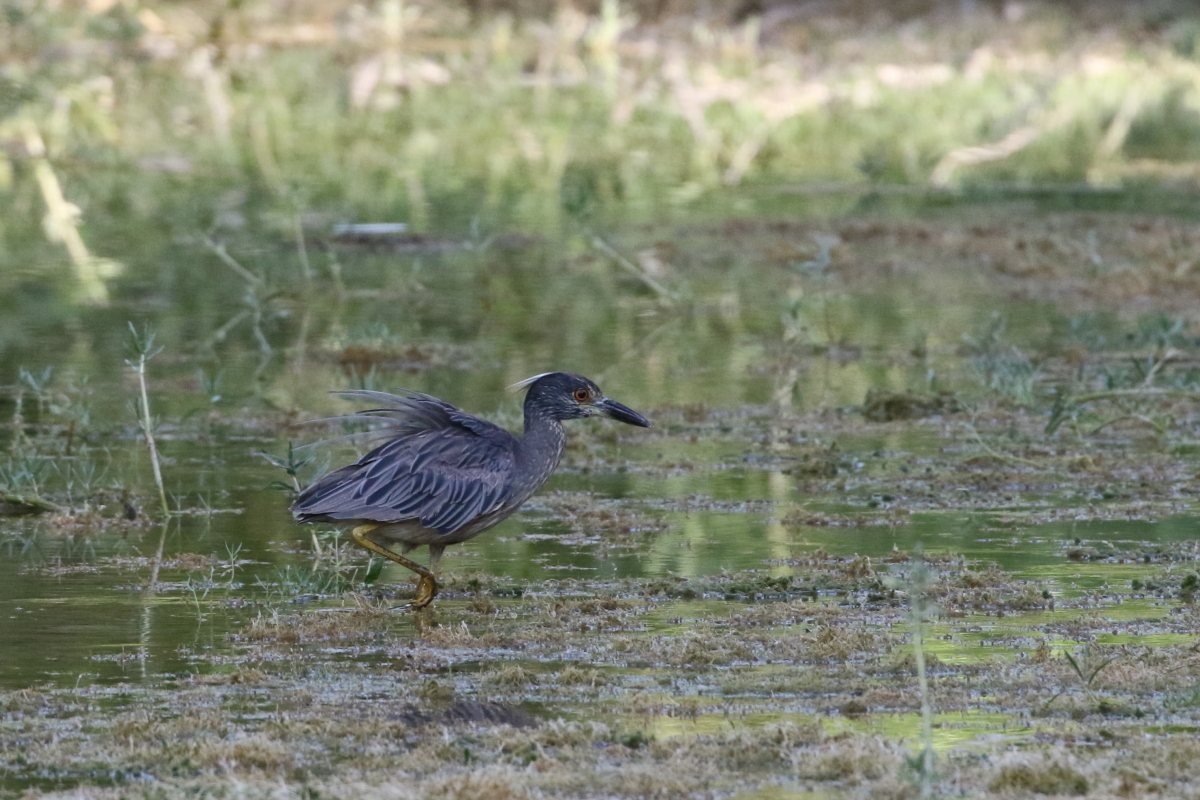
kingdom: Animalia
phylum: Chordata
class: Aves
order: Pelecaniformes
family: Ardeidae
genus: Nyctanassa
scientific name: Nyctanassa violacea
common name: Yellow-crowned night heron
